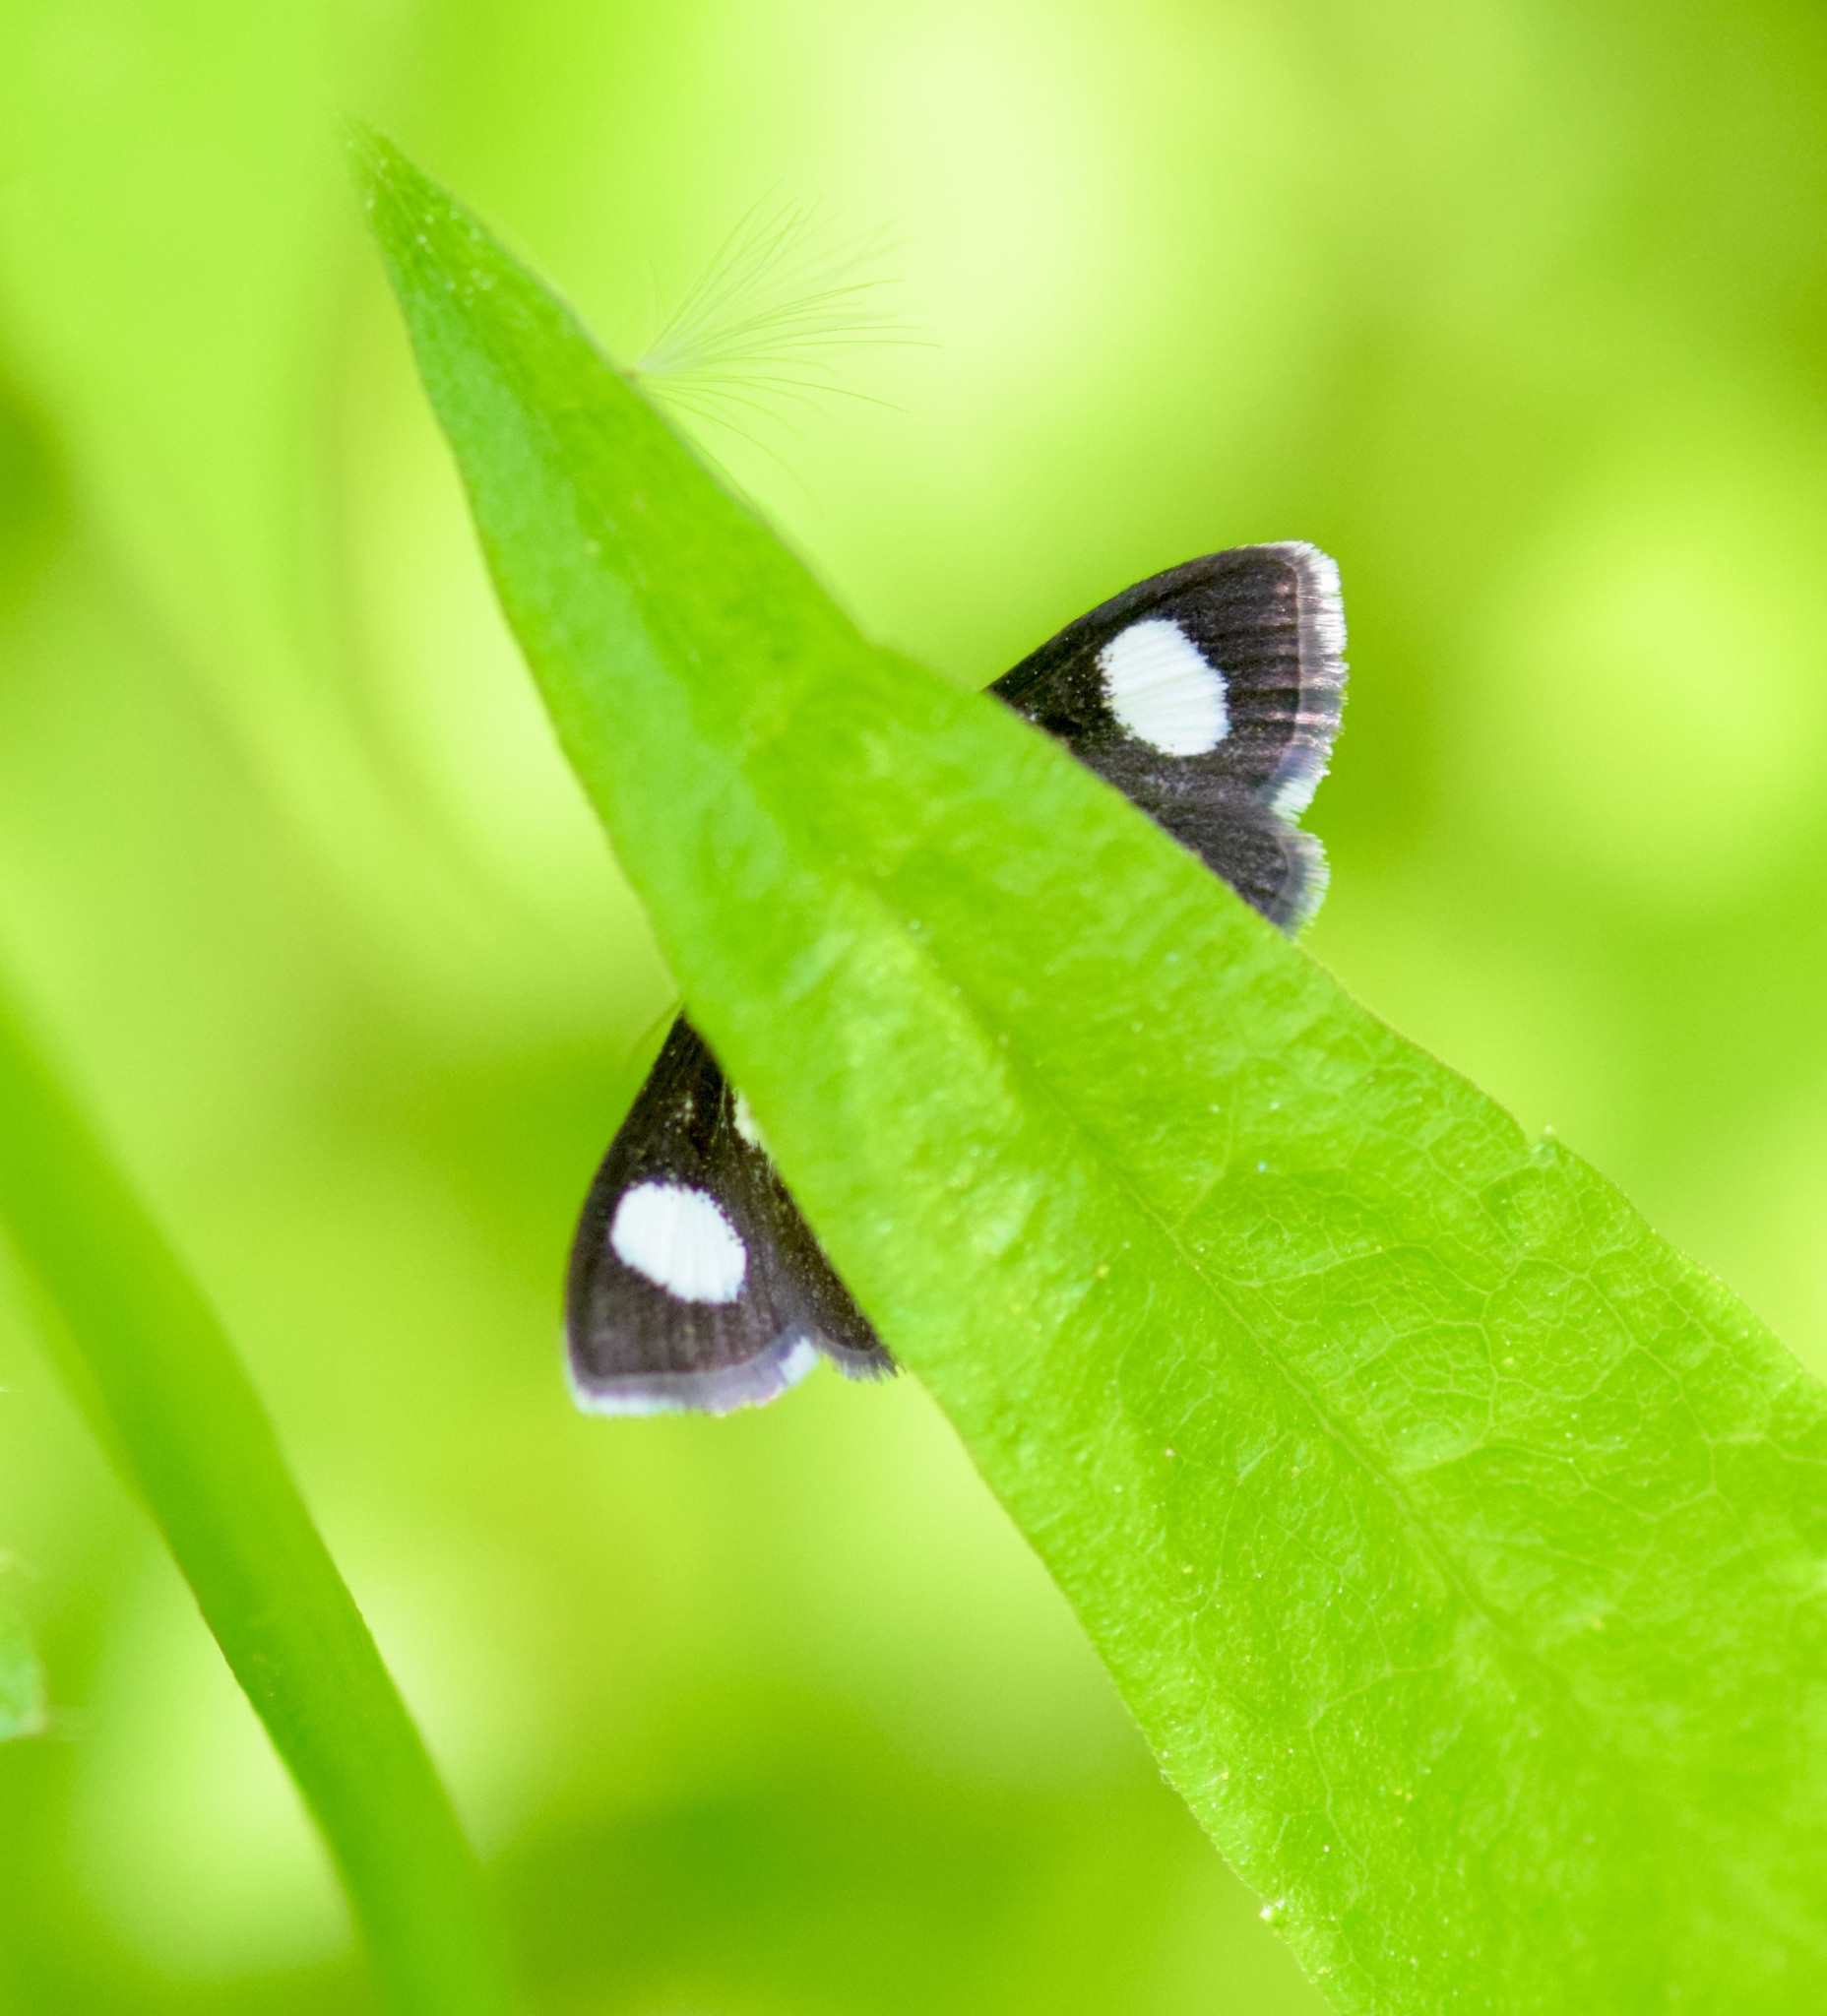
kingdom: Animalia
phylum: Arthropoda
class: Insecta
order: Lepidoptera
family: Crambidae
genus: Anania
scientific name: Anania funebris
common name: White-spotted sable moth
